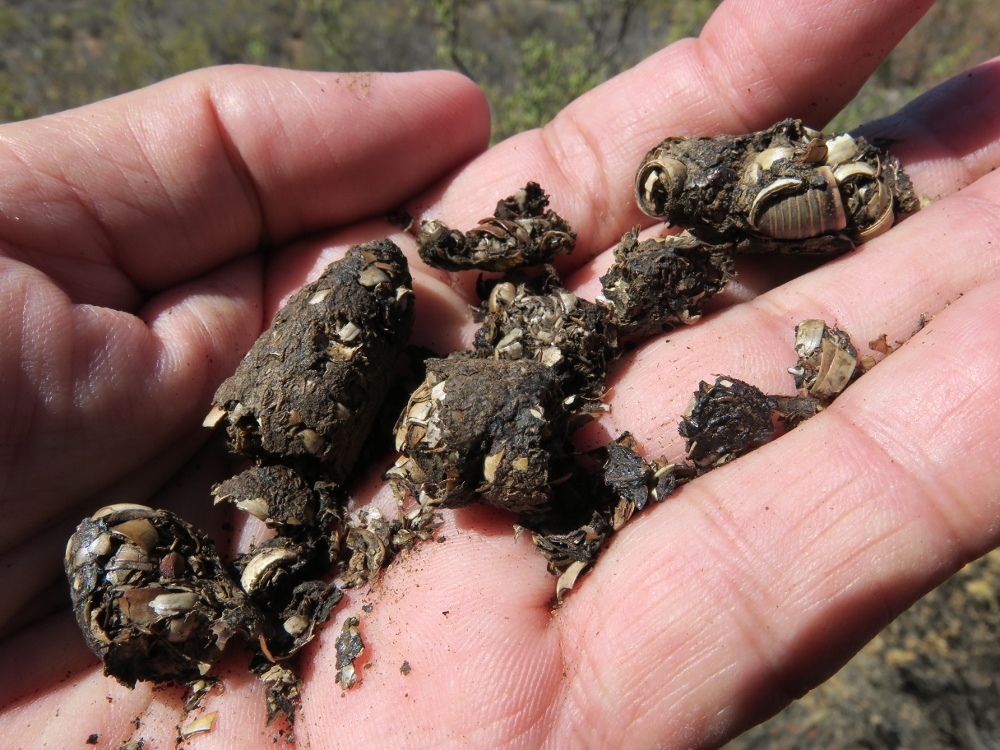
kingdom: Animalia
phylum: Chordata
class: Mammalia
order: Carnivora
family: Herpestidae
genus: Suricata
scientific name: Suricata suricatta
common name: Meerkat
